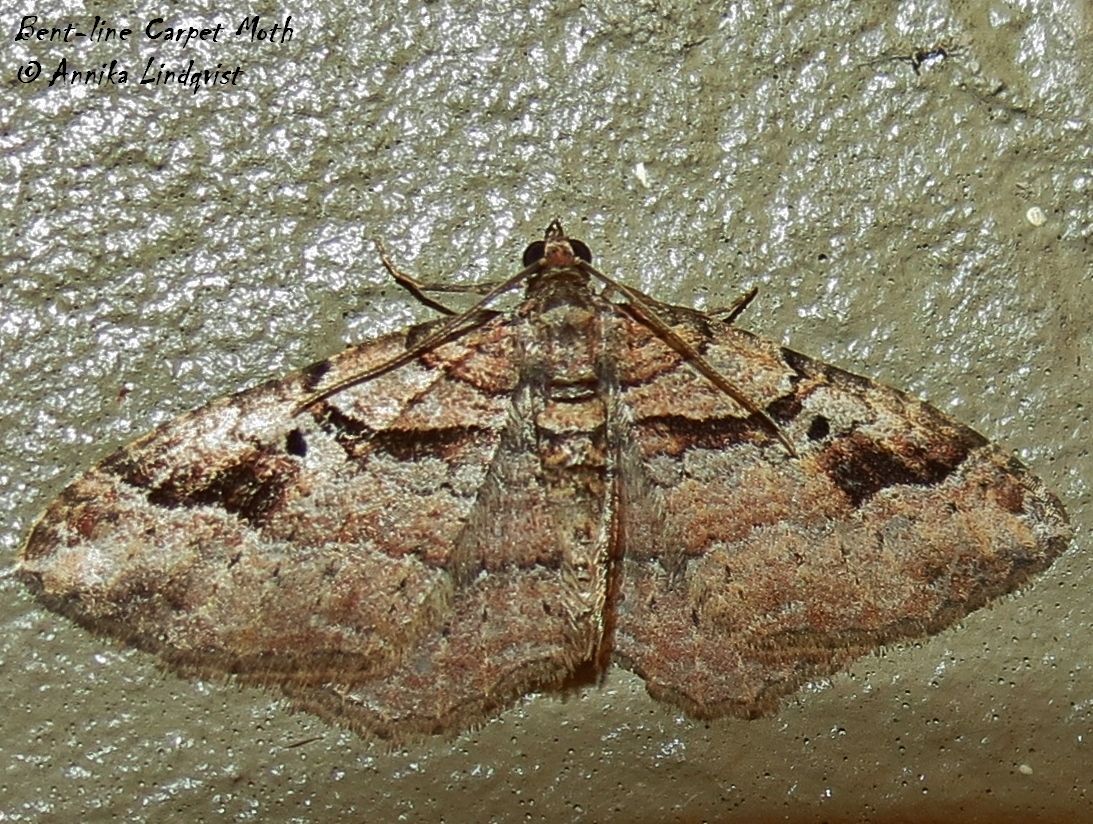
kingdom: Animalia
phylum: Arthropoda
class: Insecta
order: Lepidoptera
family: Geometridae
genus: Costaconvexa
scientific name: Costaconvexa centrostrigaria
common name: Bent-line carpet
